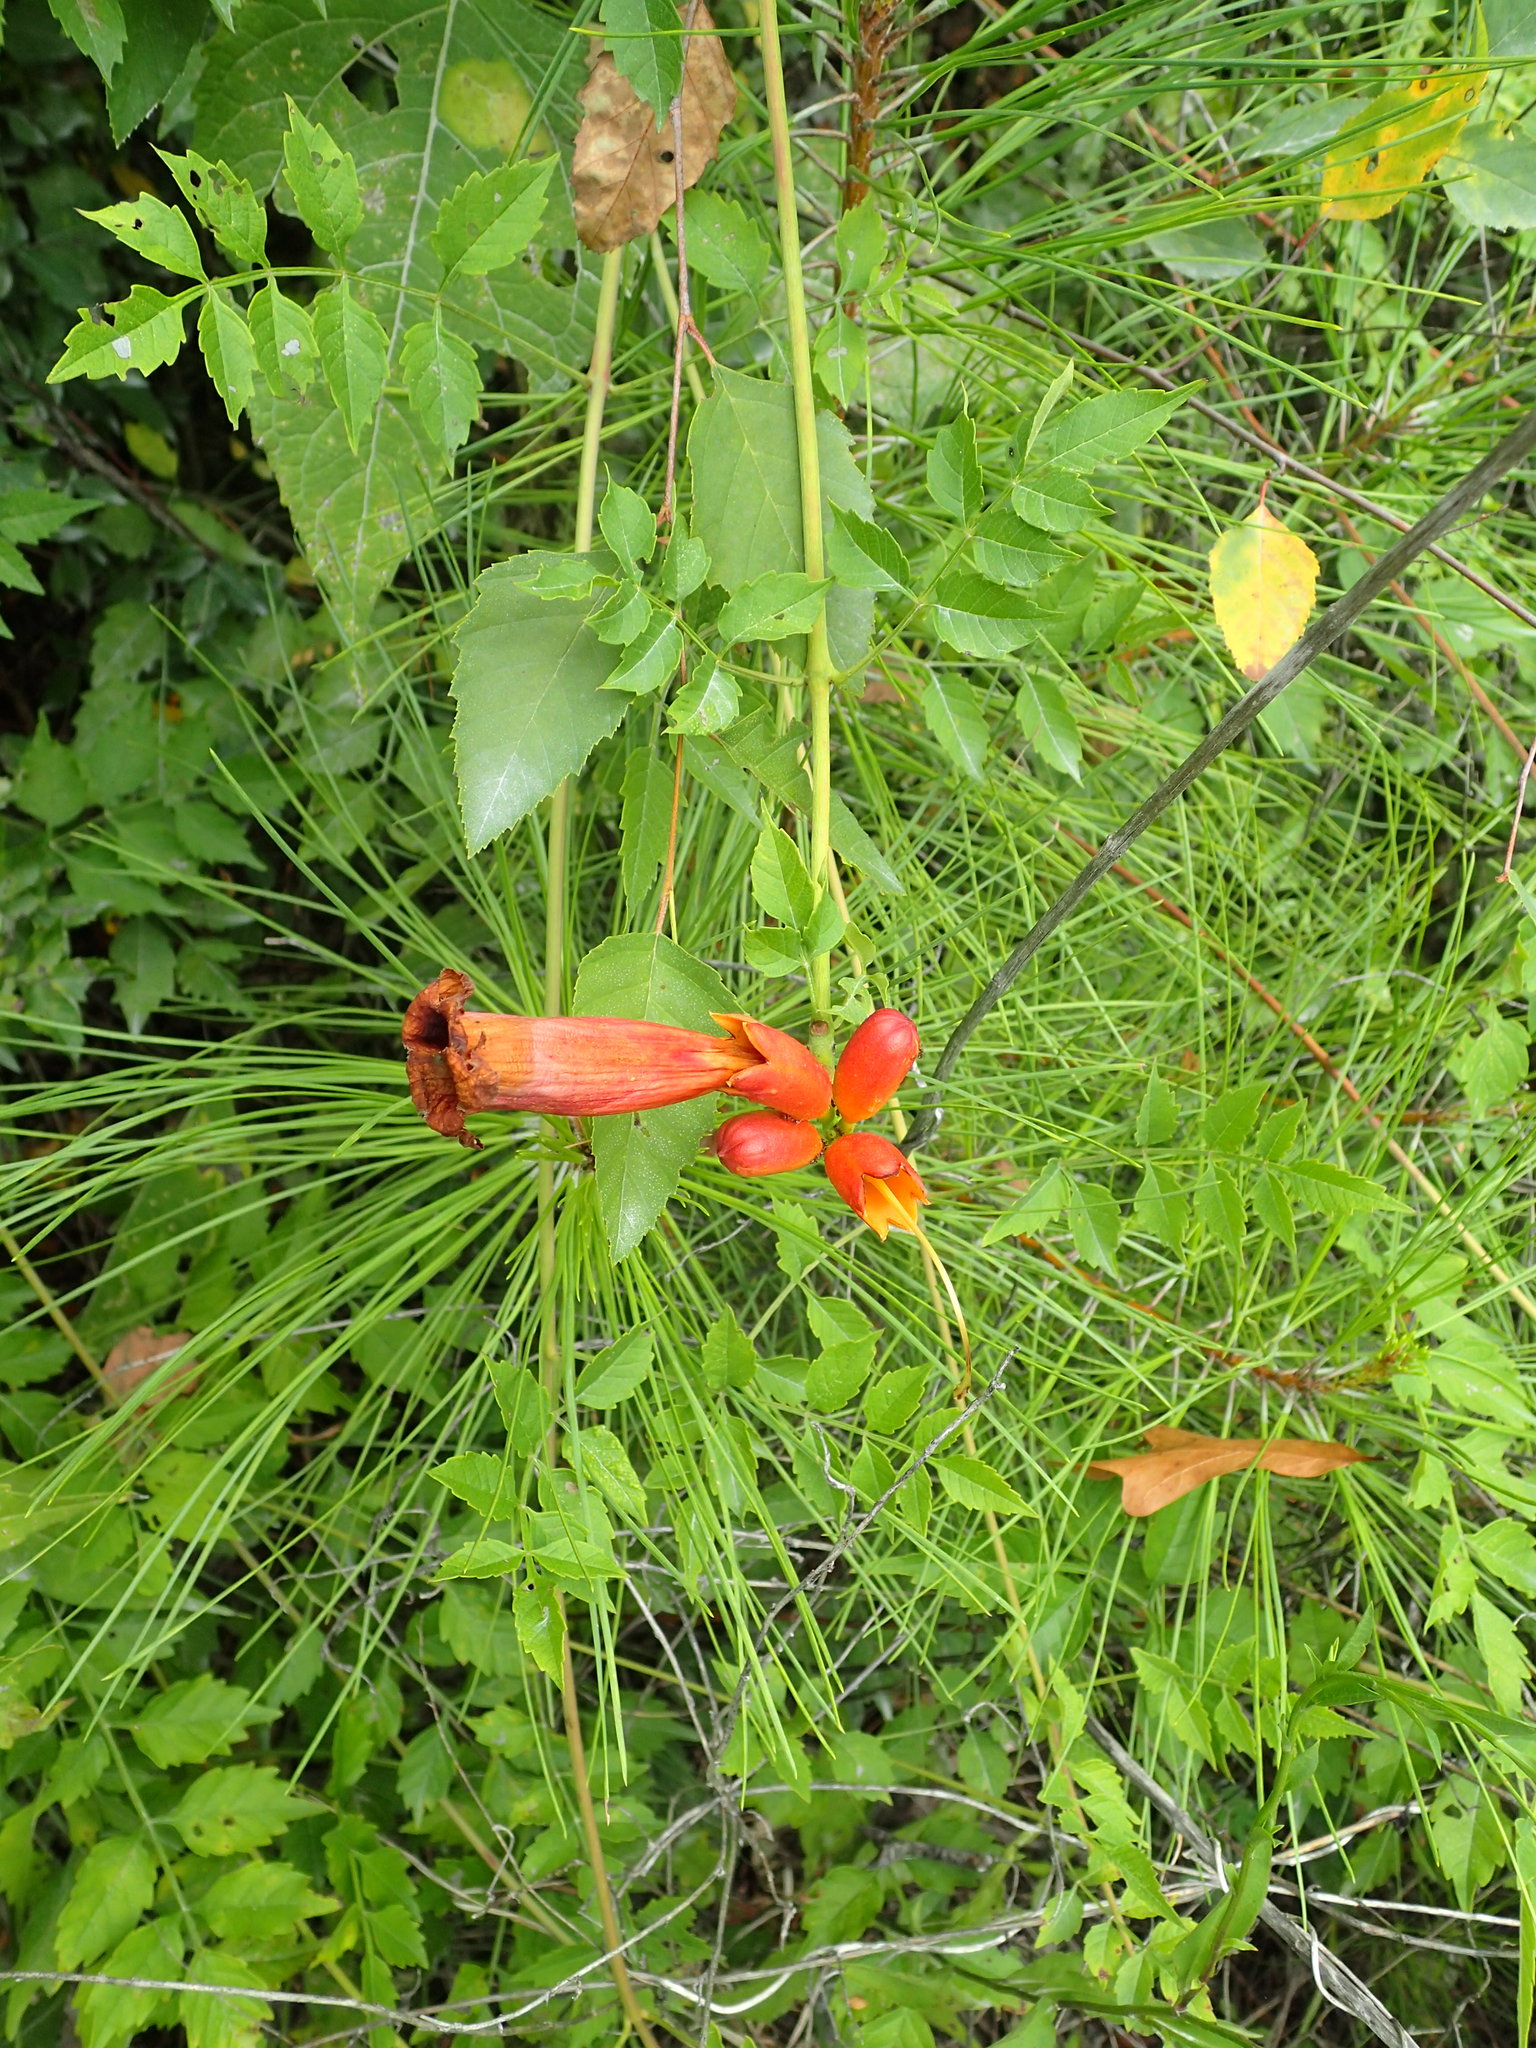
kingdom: Plantae
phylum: Tracheophyta
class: Magnoliopsida
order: Lamiales
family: Bignoniaceae
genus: Campsis
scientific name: Campsis radicans
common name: Trumpet-creeper
